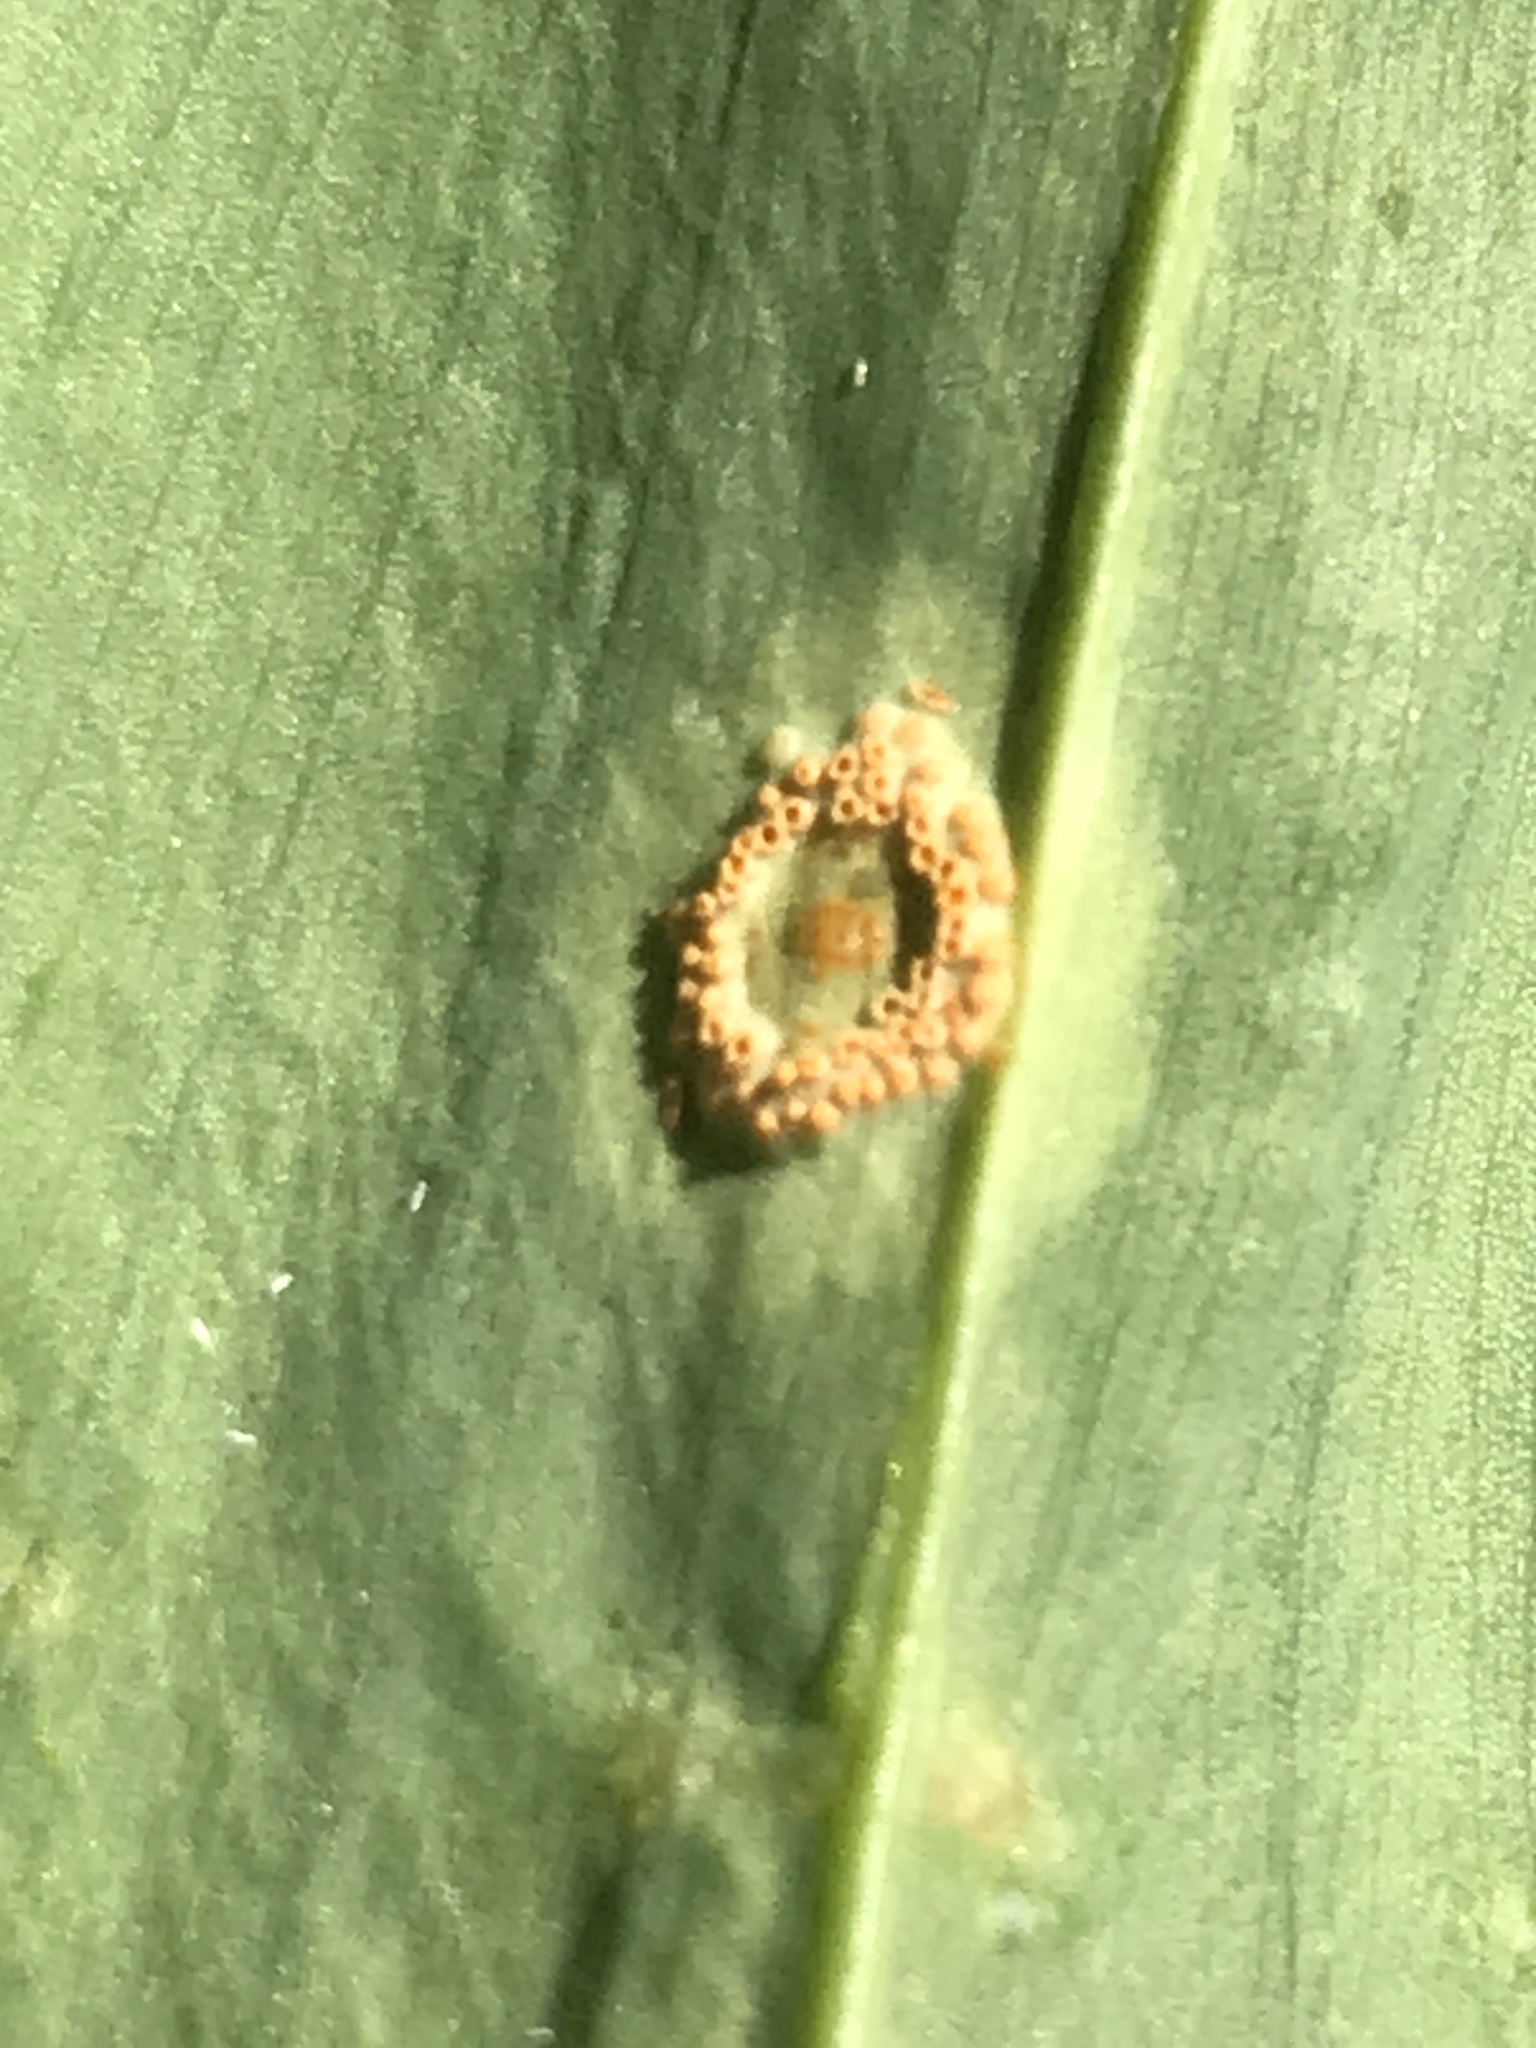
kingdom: Fungi
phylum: Basidiomycota
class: Pucciniomycetes
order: Pucciniales
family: Pucciniaceae
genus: Puccinia
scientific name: Puccinia sessilis
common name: Arum rust
